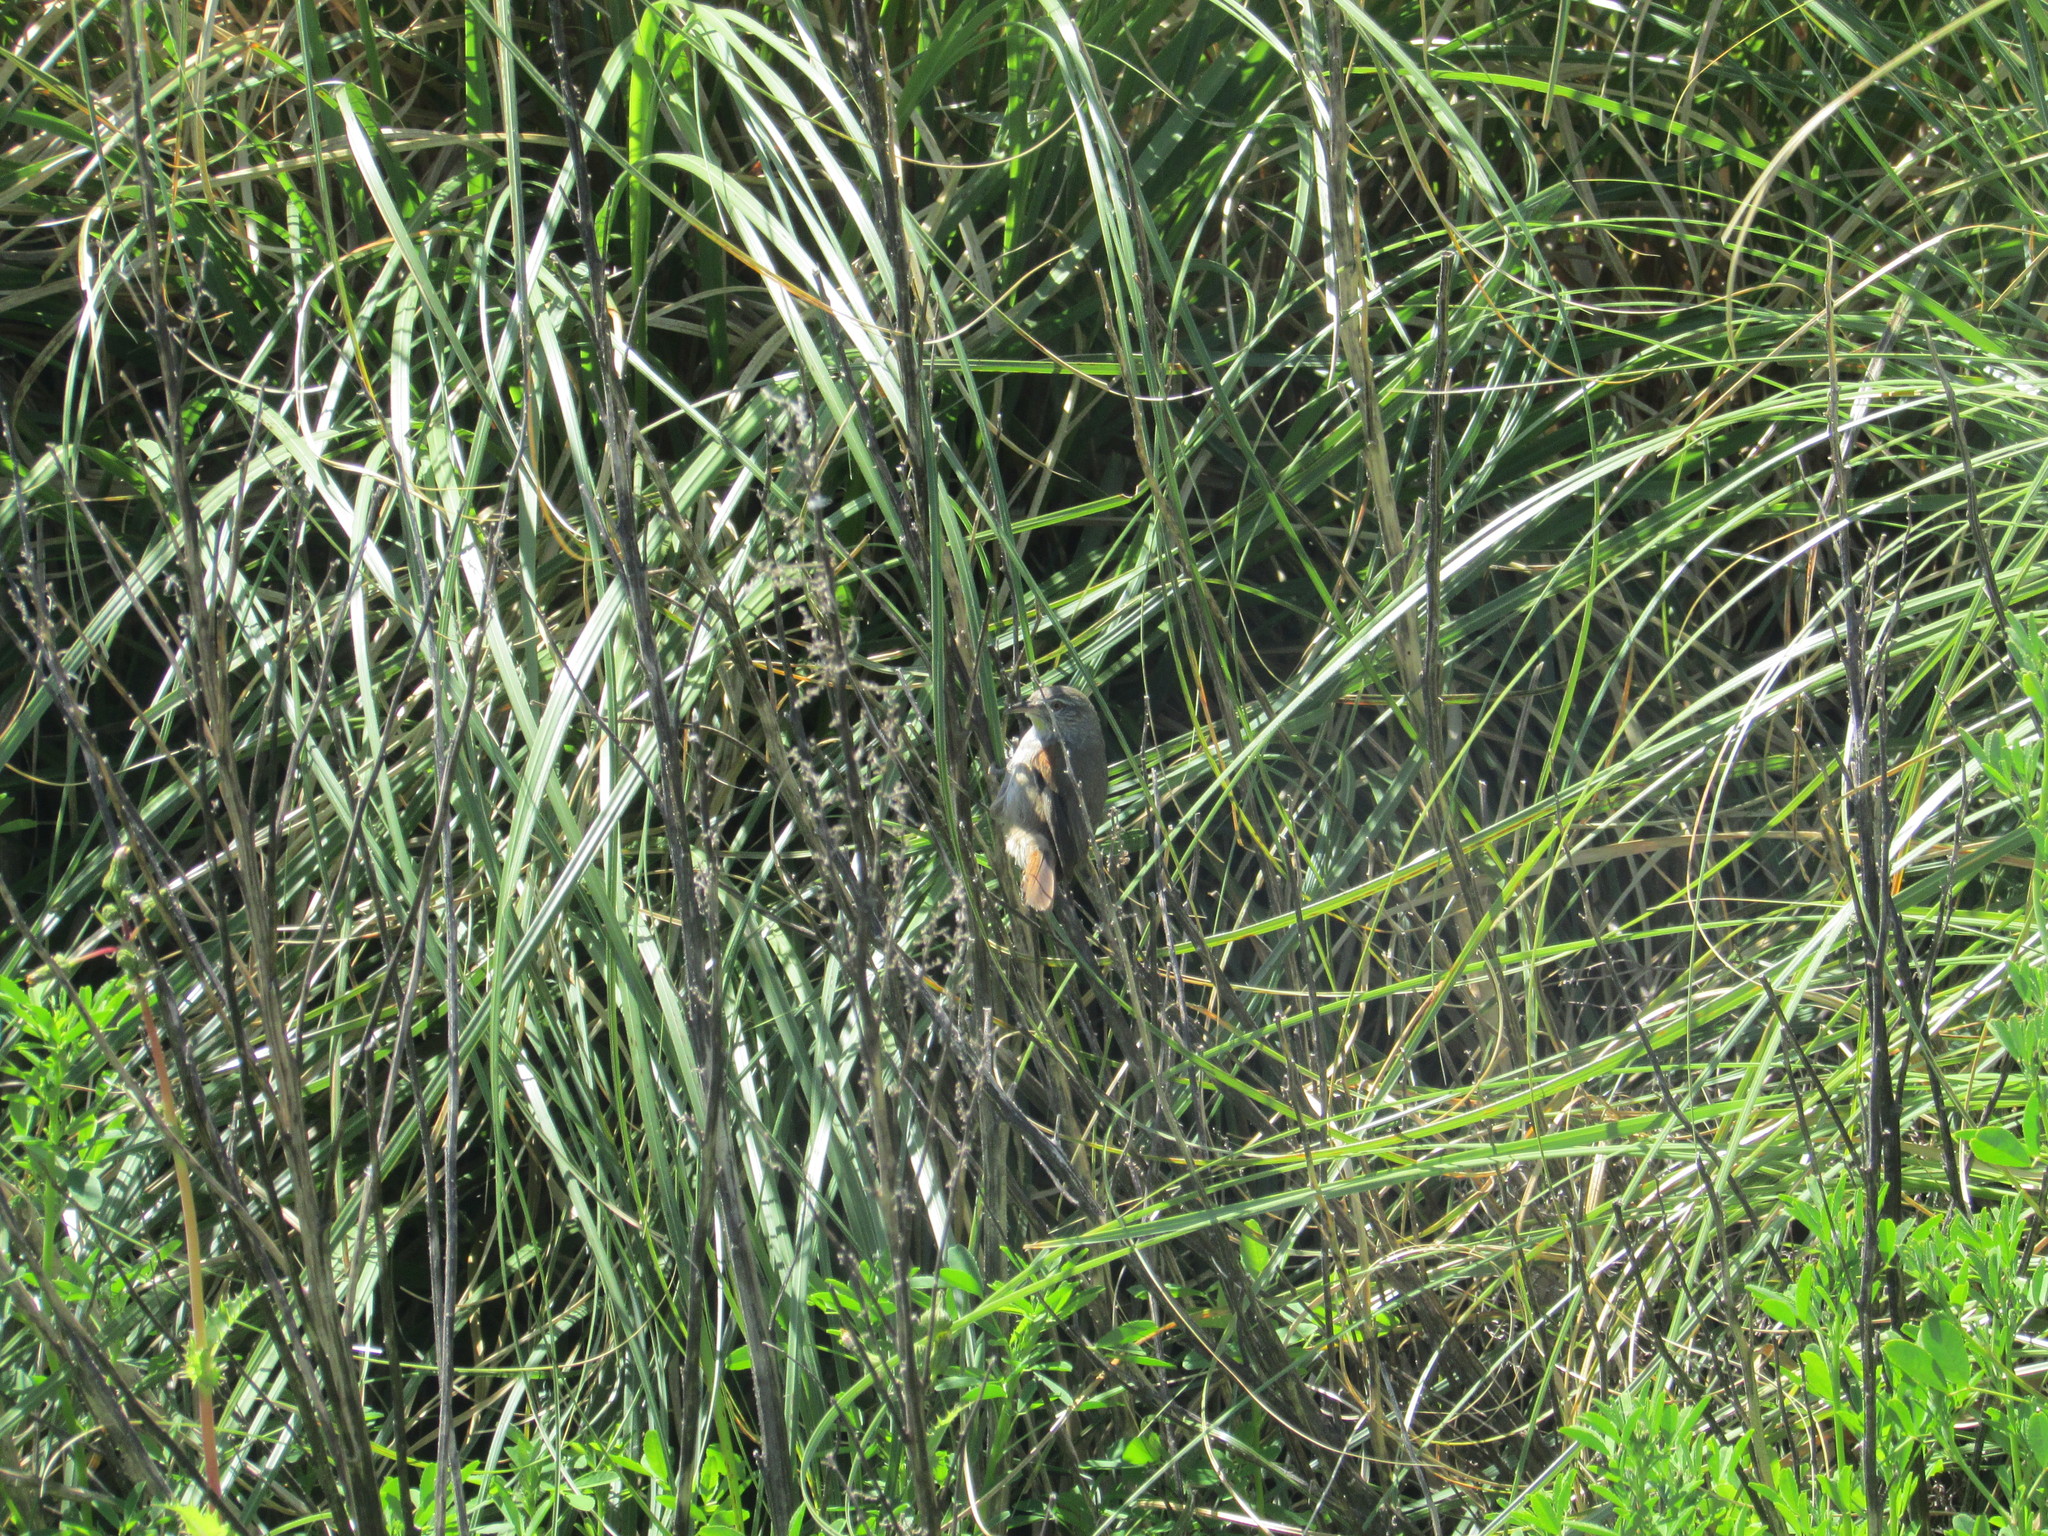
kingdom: Animalia
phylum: Chordata
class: Aves
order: Passeriformes
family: Furnariidae
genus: Cranioleuca
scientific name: Cranioleuca sulphurifera
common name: Sulphur-bearded spinetail
